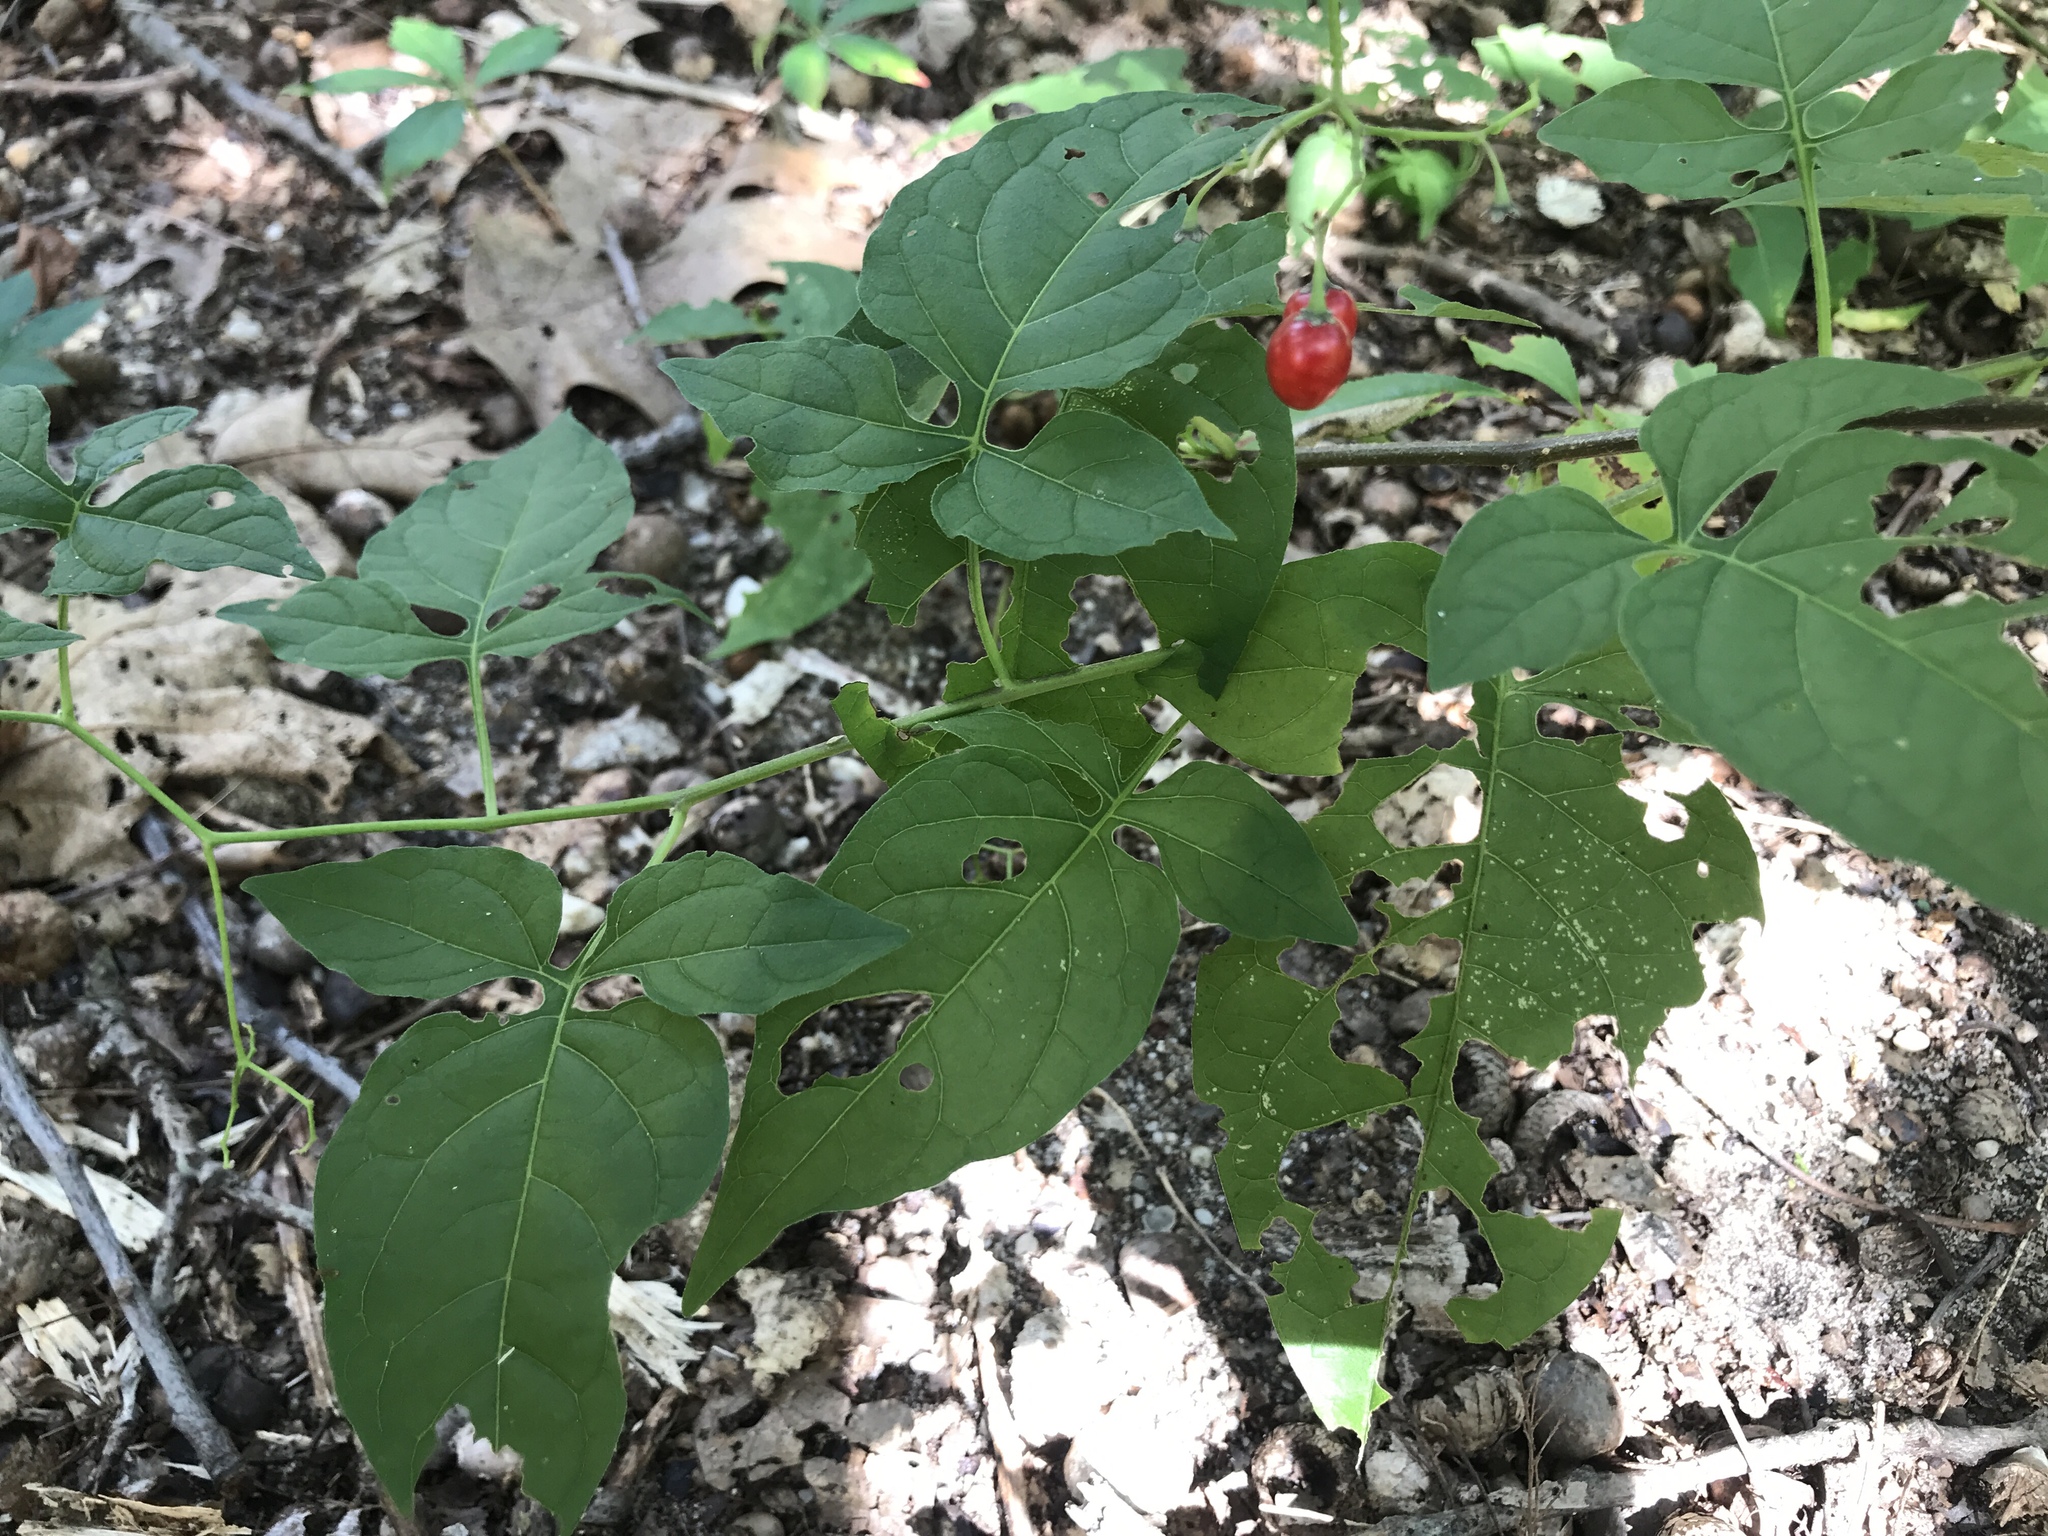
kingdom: Plantae
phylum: Tracheophyta
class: Magnoliopsida
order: Solanales
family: Solanaceae
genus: Solanum
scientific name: Solanum dulcamara
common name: Climbing nightshade
